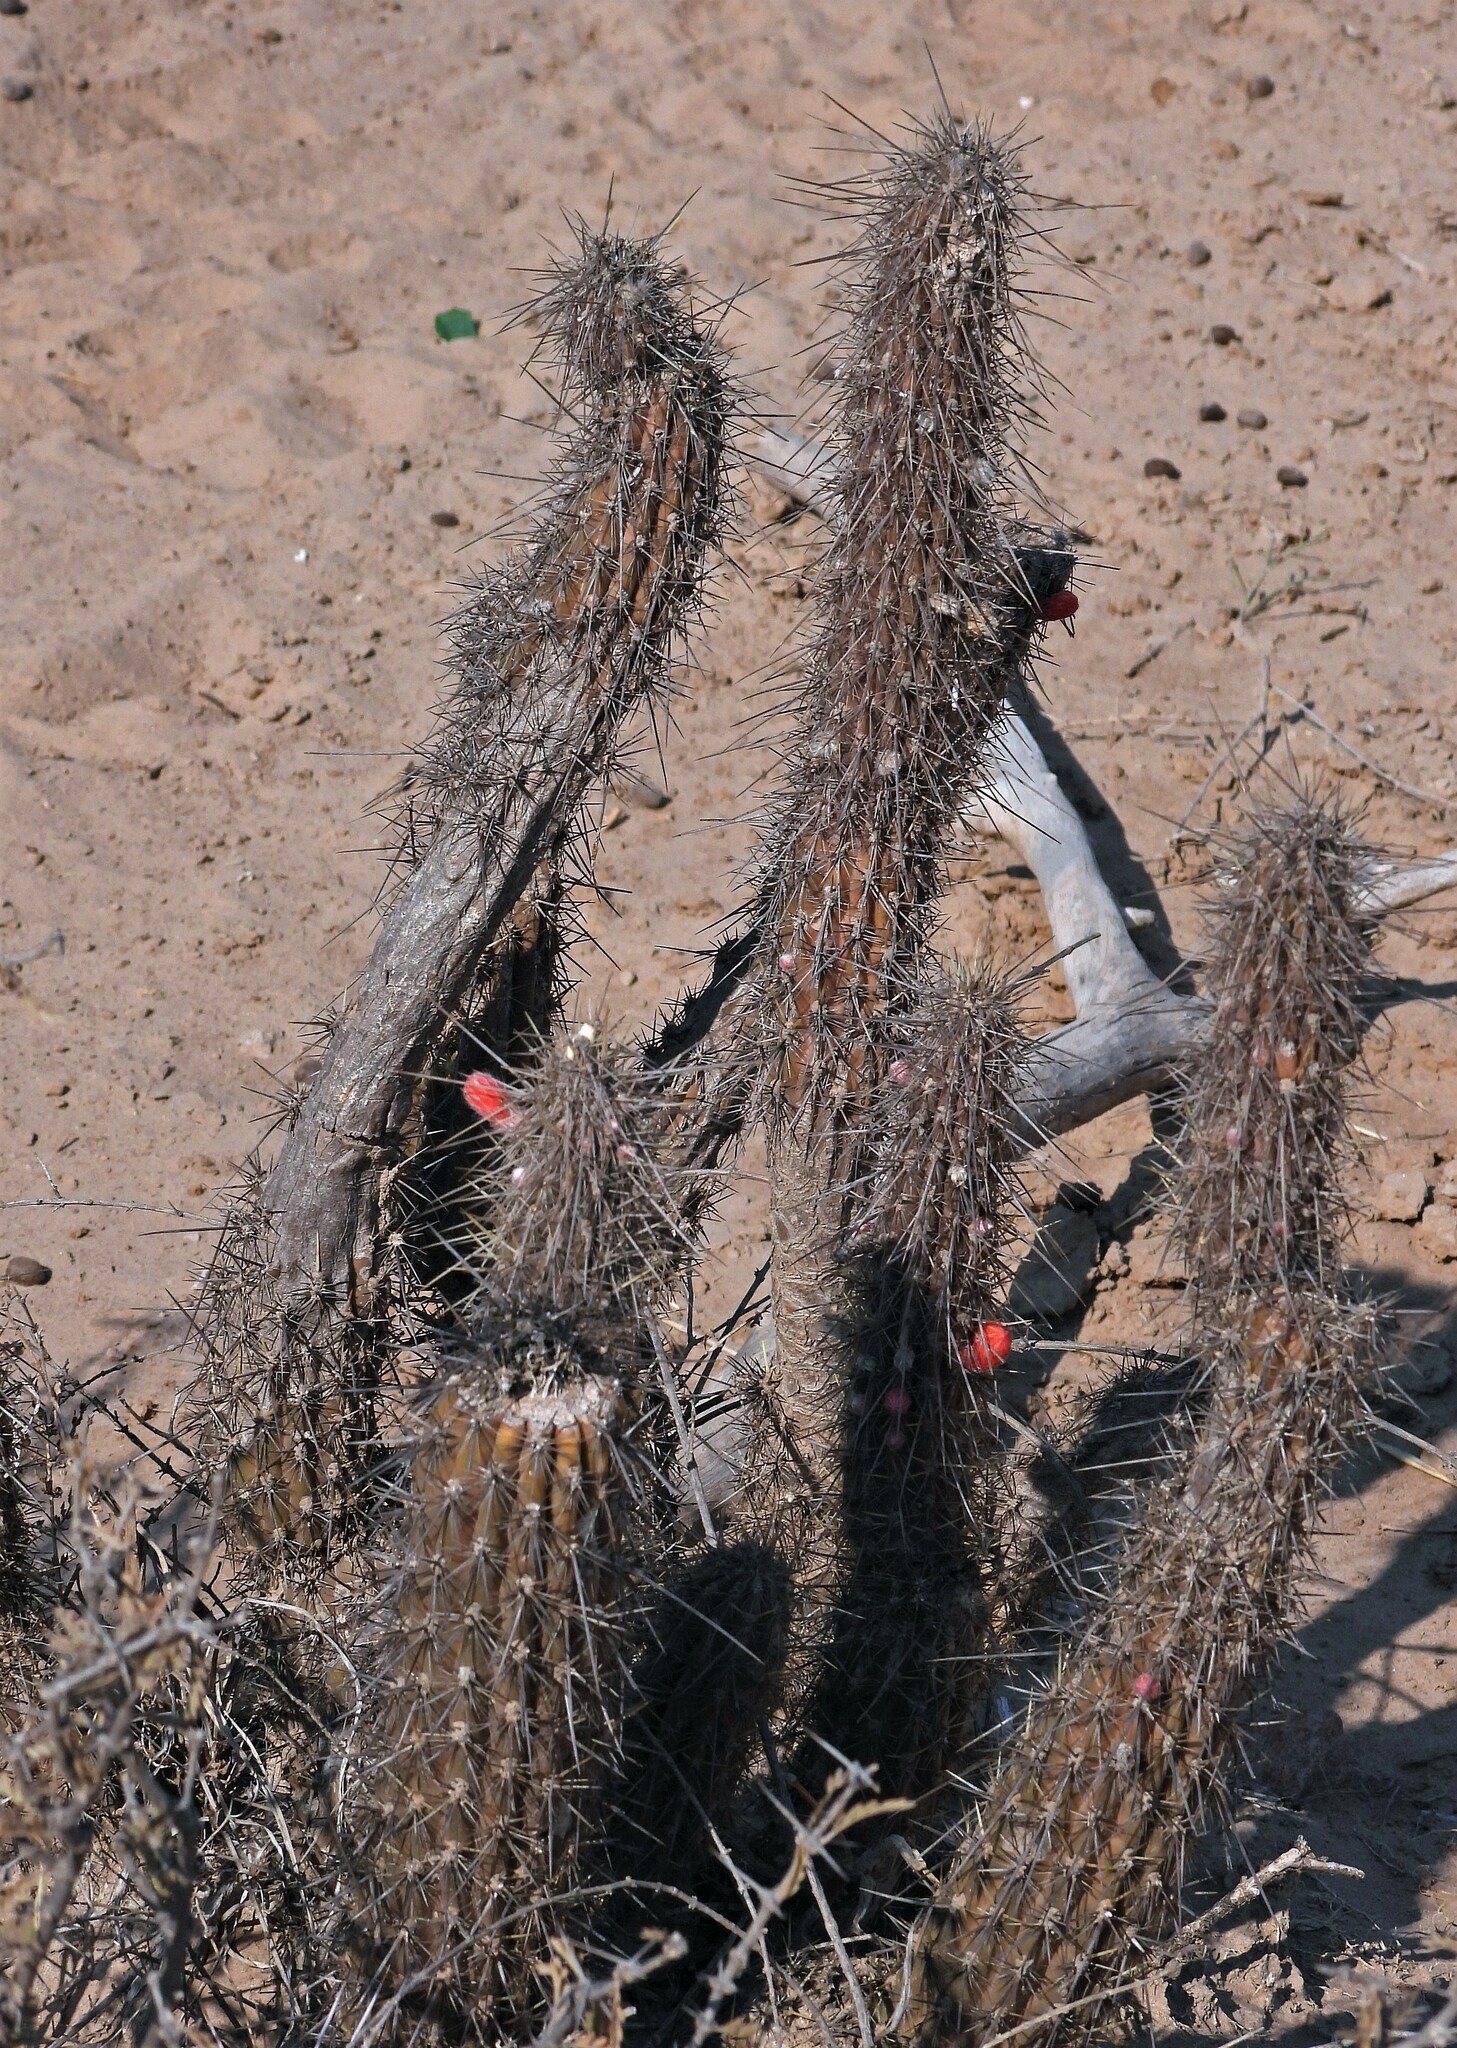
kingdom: Plantae
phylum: Tracheophyta
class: Magnoliopsida
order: Caryophyllales
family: Cactaceae
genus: Cleistocactus
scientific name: Cleistocactus baumannii
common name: Scarlet-bugler
